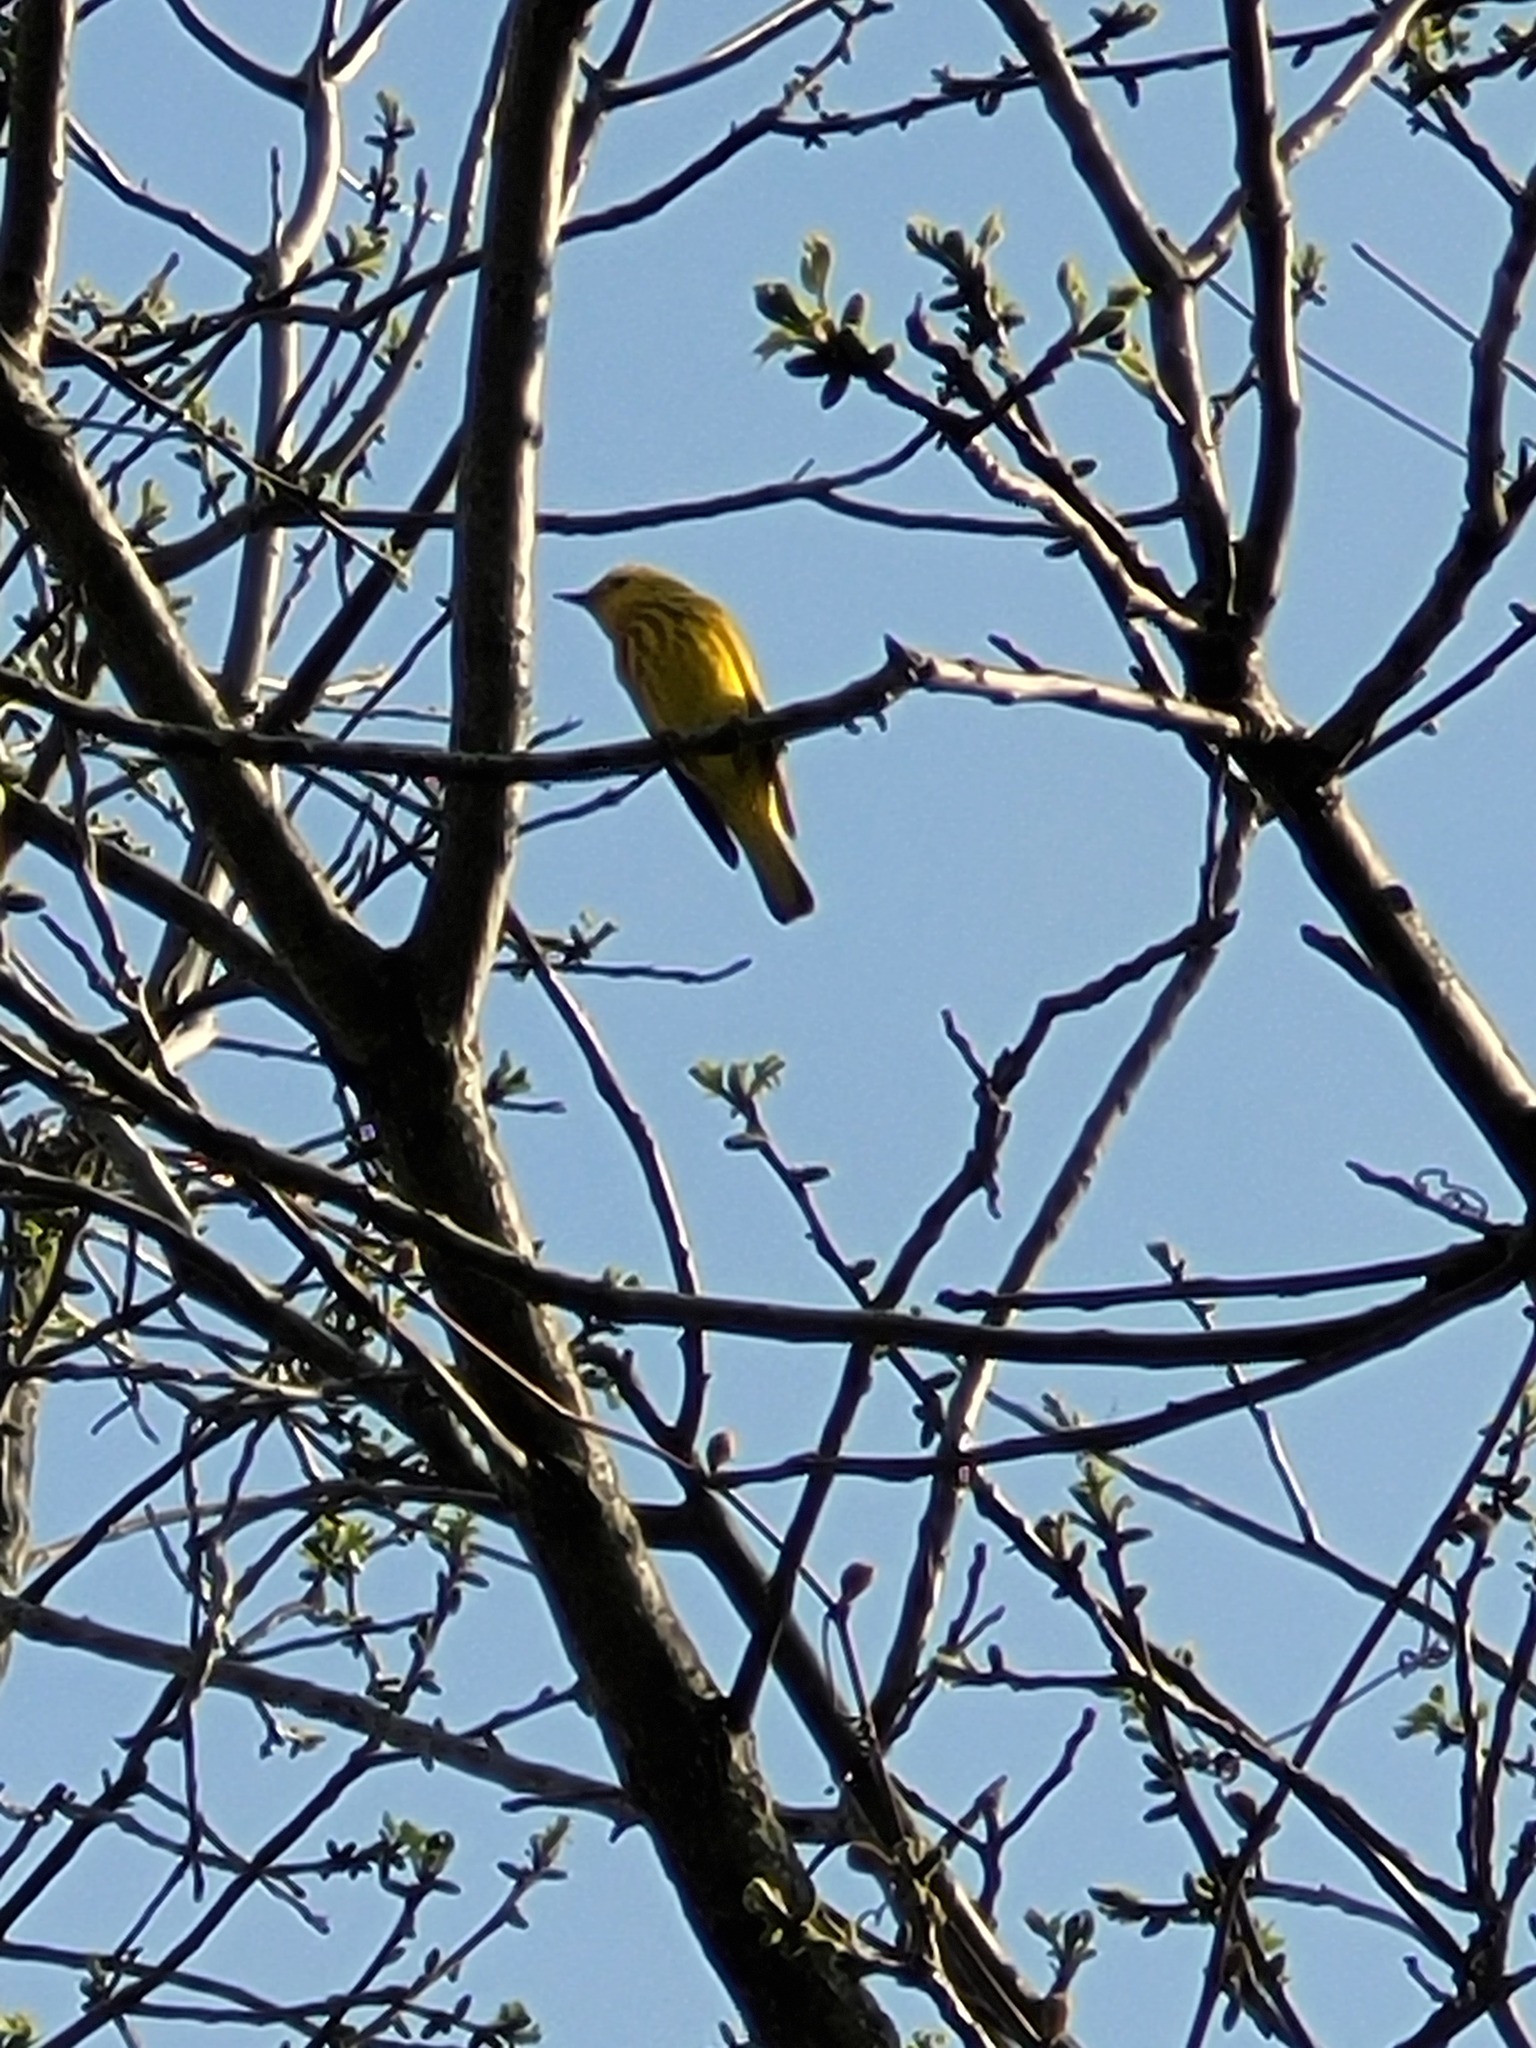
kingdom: Animalia
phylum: Chordata
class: Aves
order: Passeriformes
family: Parulidae
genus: Setophaga
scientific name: Setophaga petechia
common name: Yellow warbler
